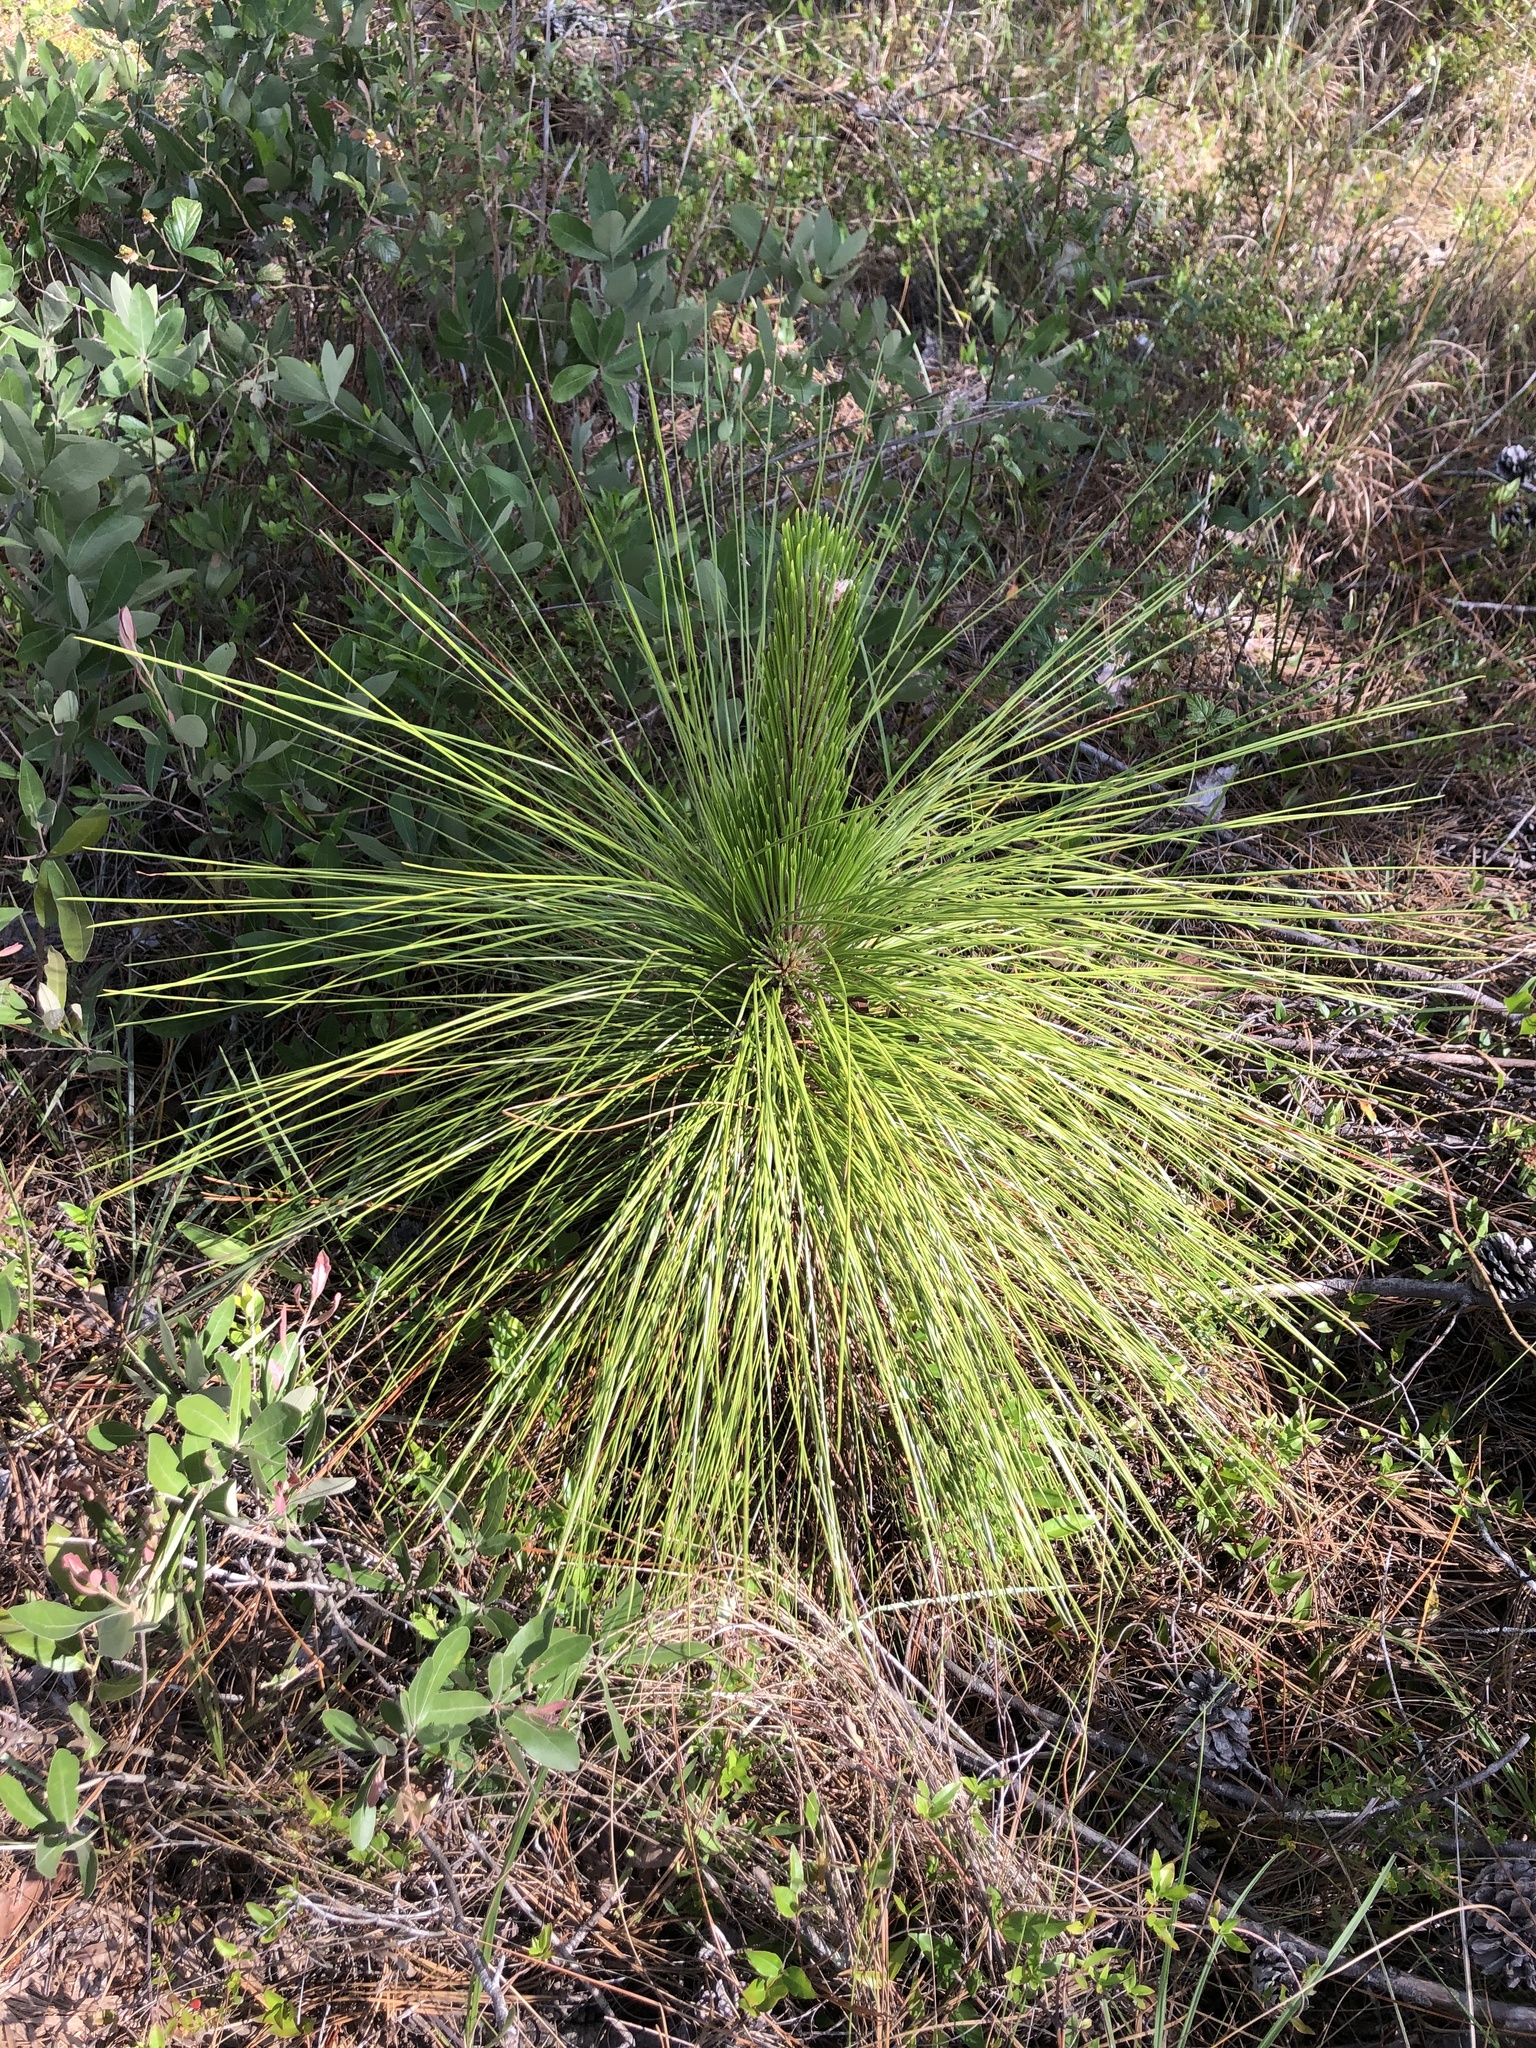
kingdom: Plantae
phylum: Tracheophyta
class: Pinopsida
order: Pinales
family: Pinaceae
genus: Pinus
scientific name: Pinus palustris
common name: Longleaf pine
